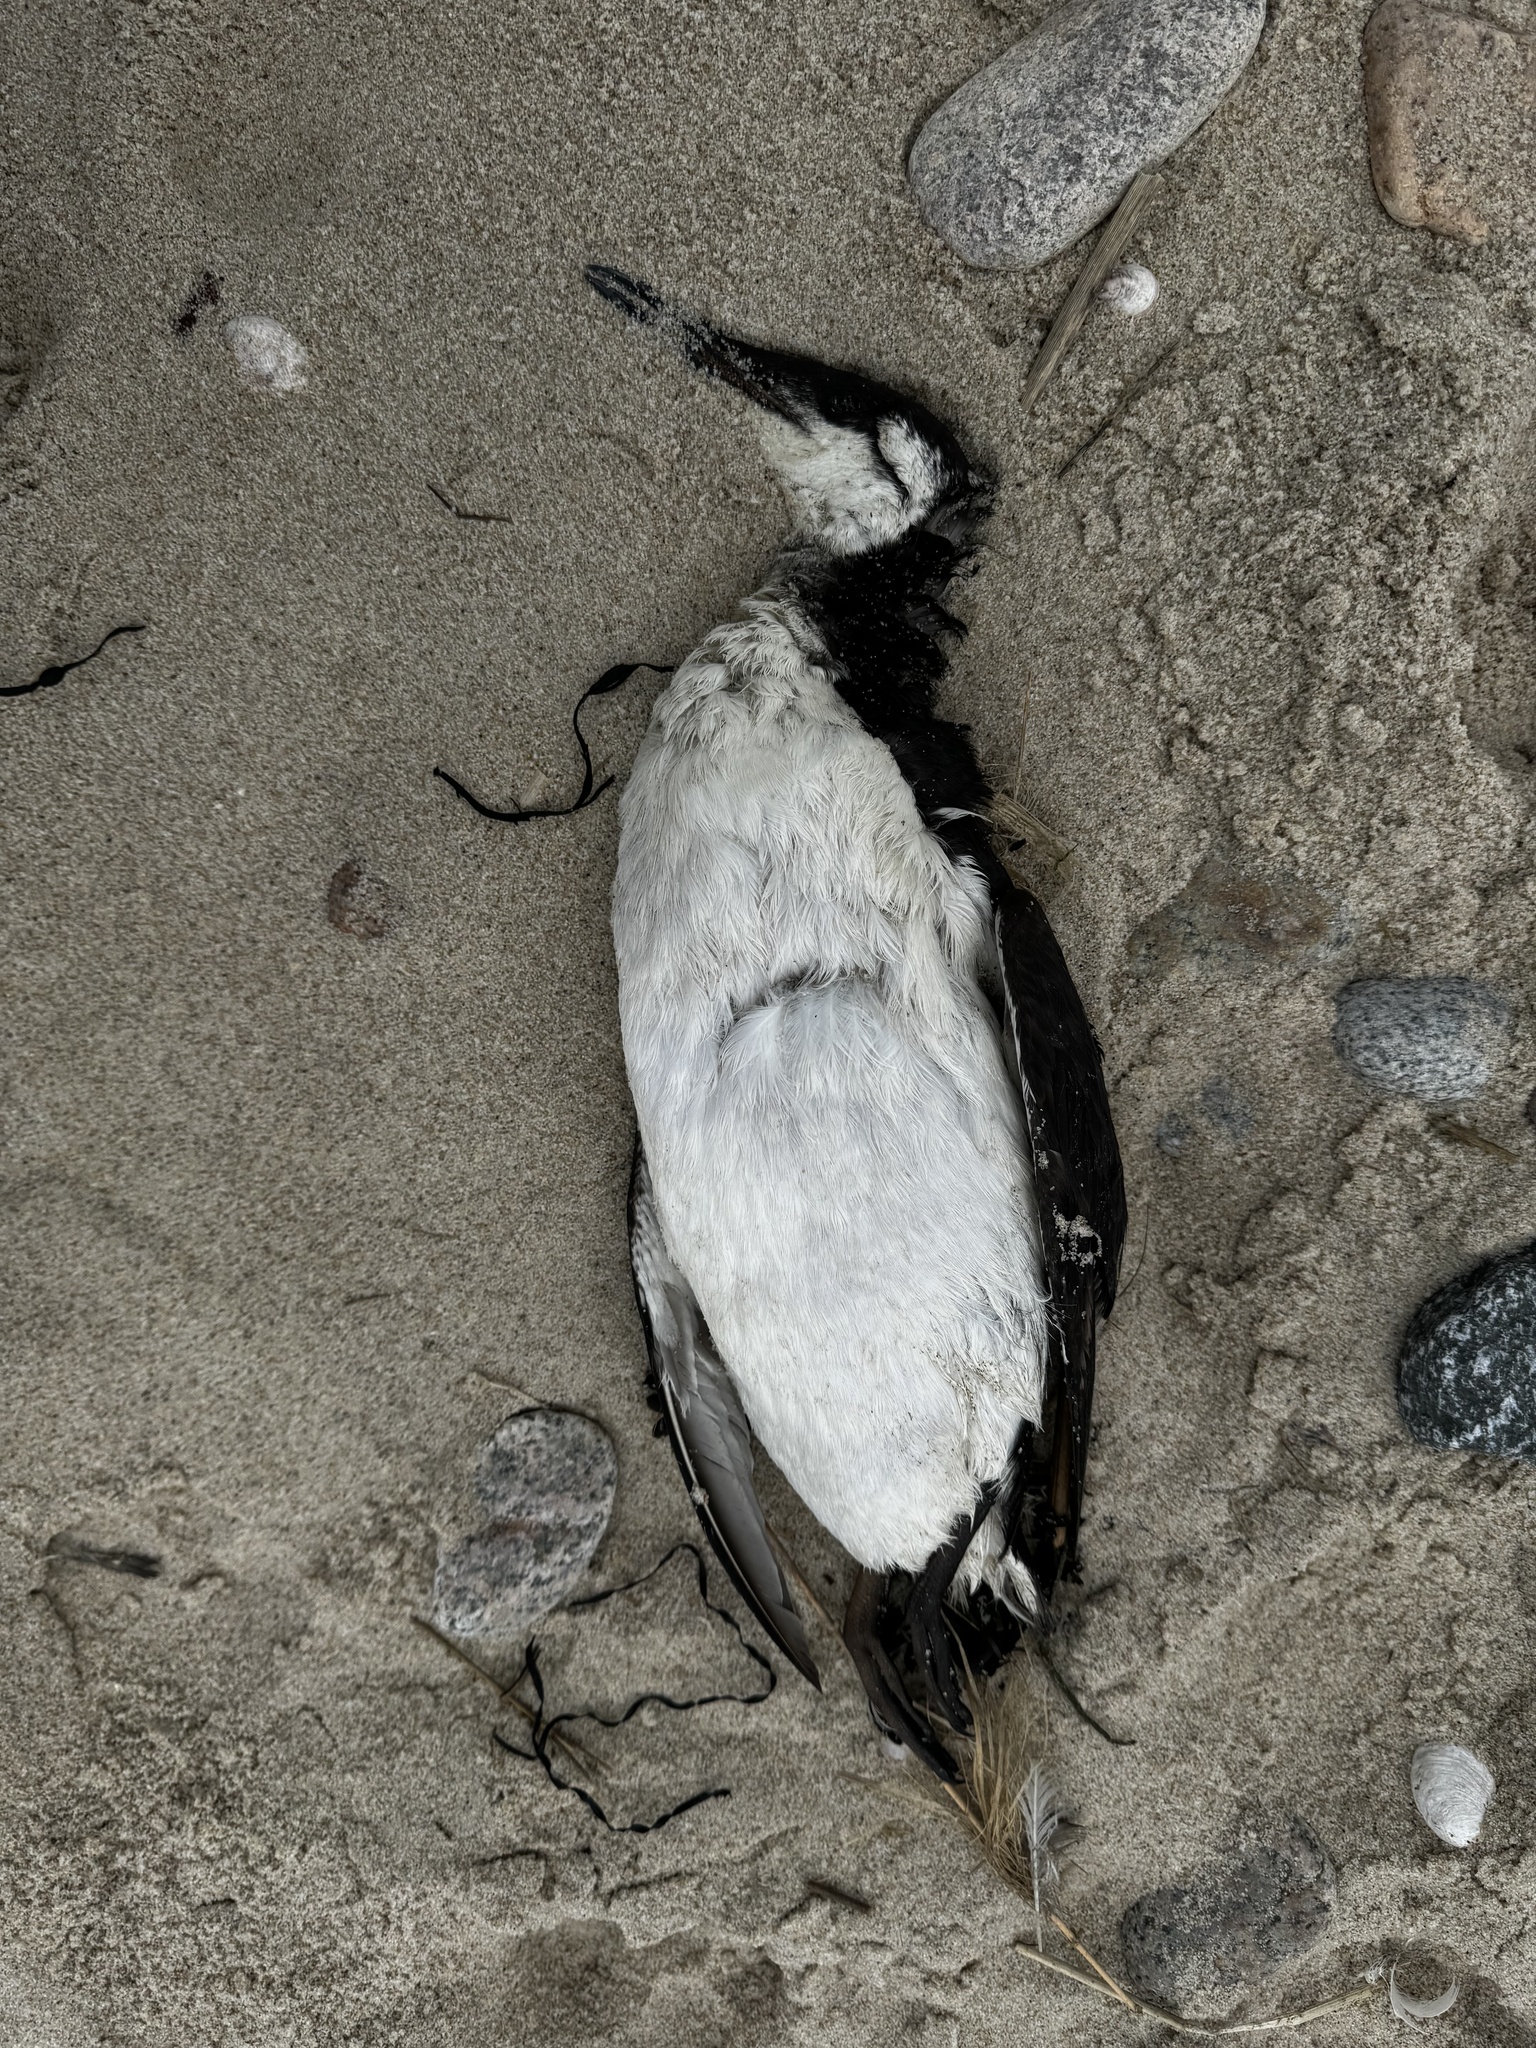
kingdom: Animalia
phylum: Chordata
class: Aves
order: Charadriiformes
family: Alcidae
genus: Uria
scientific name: Uria aalge
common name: Common murre
